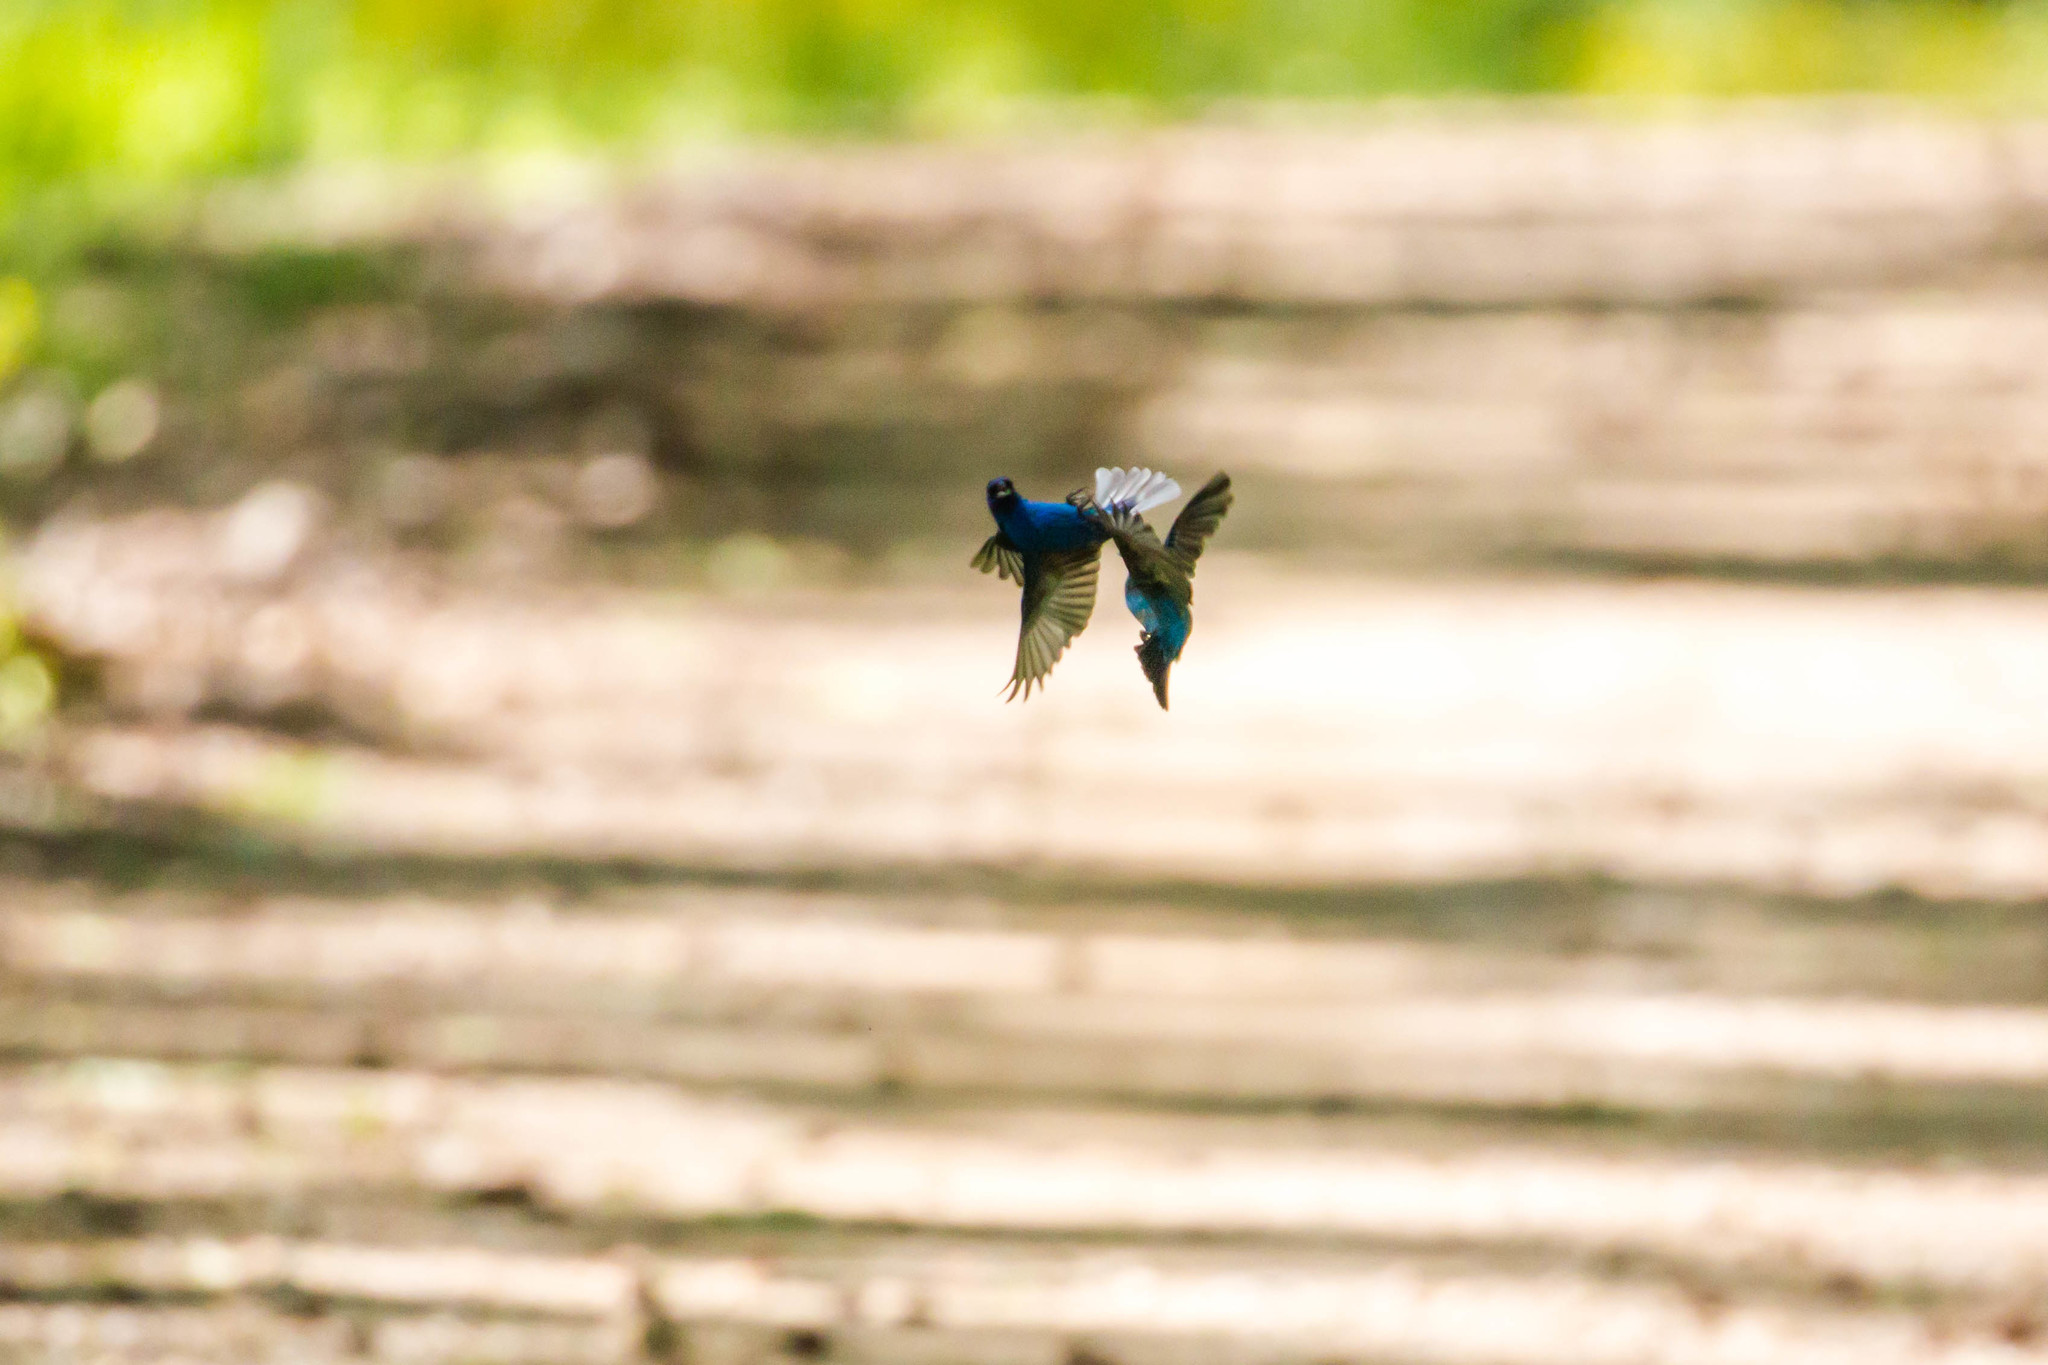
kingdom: Animalia
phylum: Chordata
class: Aves
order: Passeriformes
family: Cardinalidae
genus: Passerina
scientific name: Passerina cyanea
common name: Indigo bunting
